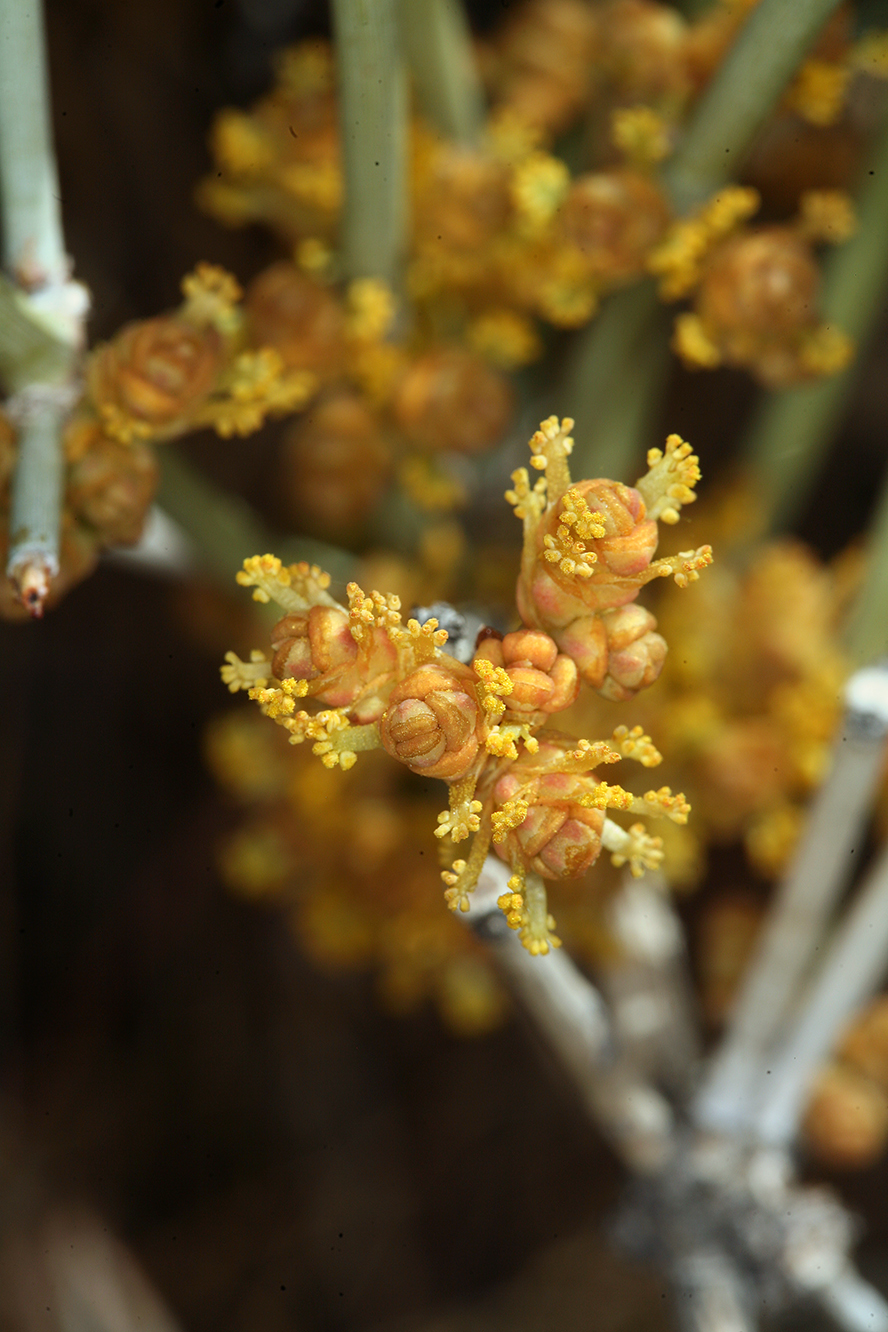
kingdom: Plantae
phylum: Tracheophyta
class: Gnetopsida
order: Ephedrales
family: Ephedraceae
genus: Ephedra
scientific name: Ephedra nevadensis
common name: Gray ephedra
